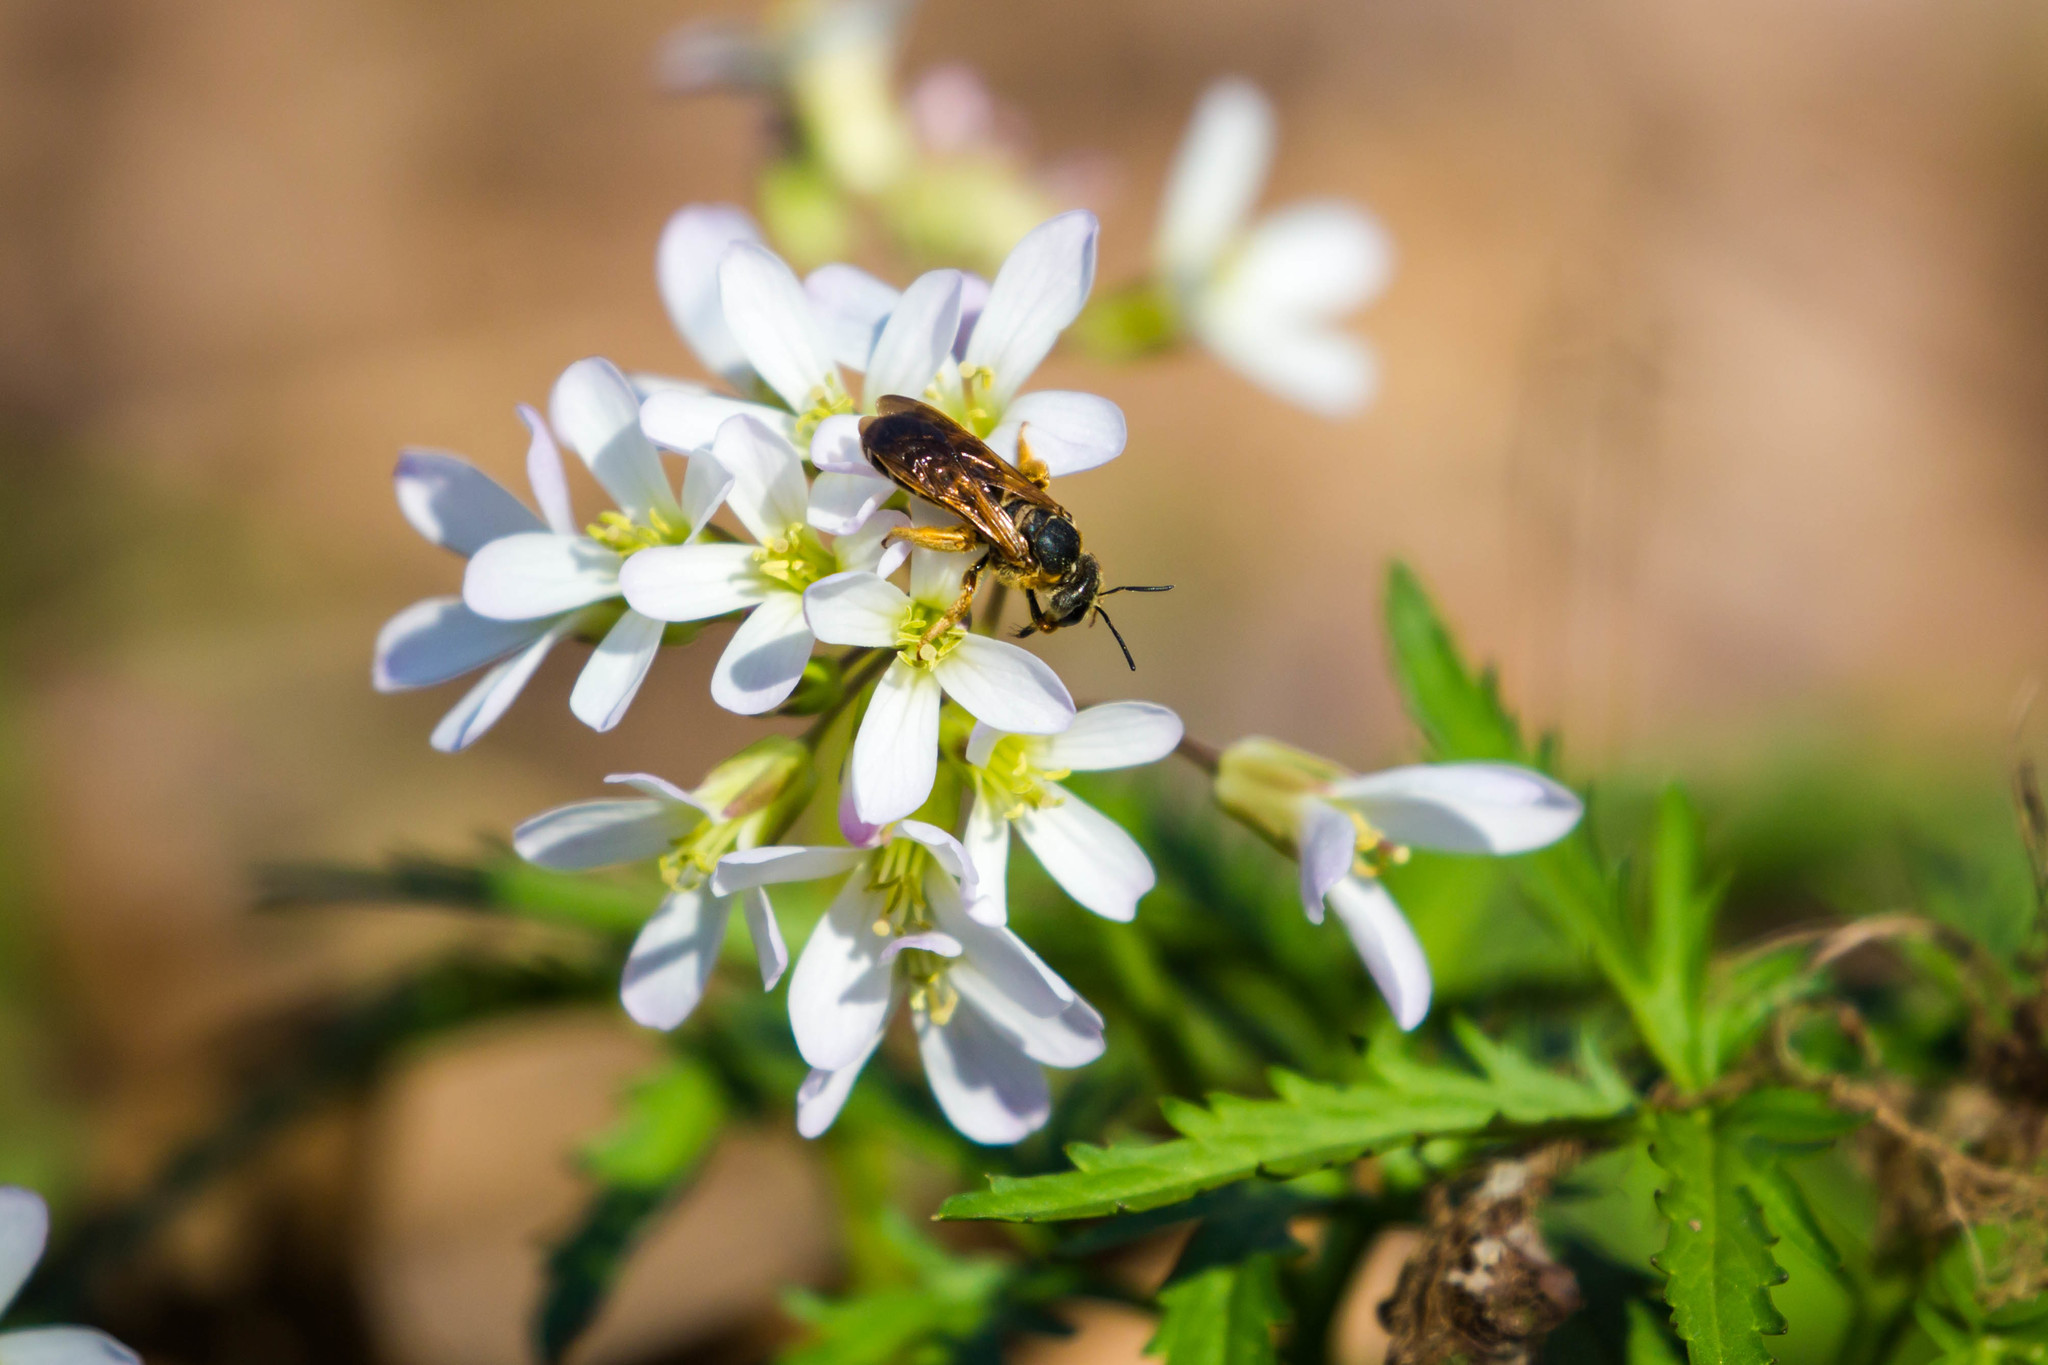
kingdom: Animalia
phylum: Arthropoda
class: Insecta
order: Hymenoptera
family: Halictidae
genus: Halictus
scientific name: Halictus parallelus
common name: Parallel-striped sweat bee
